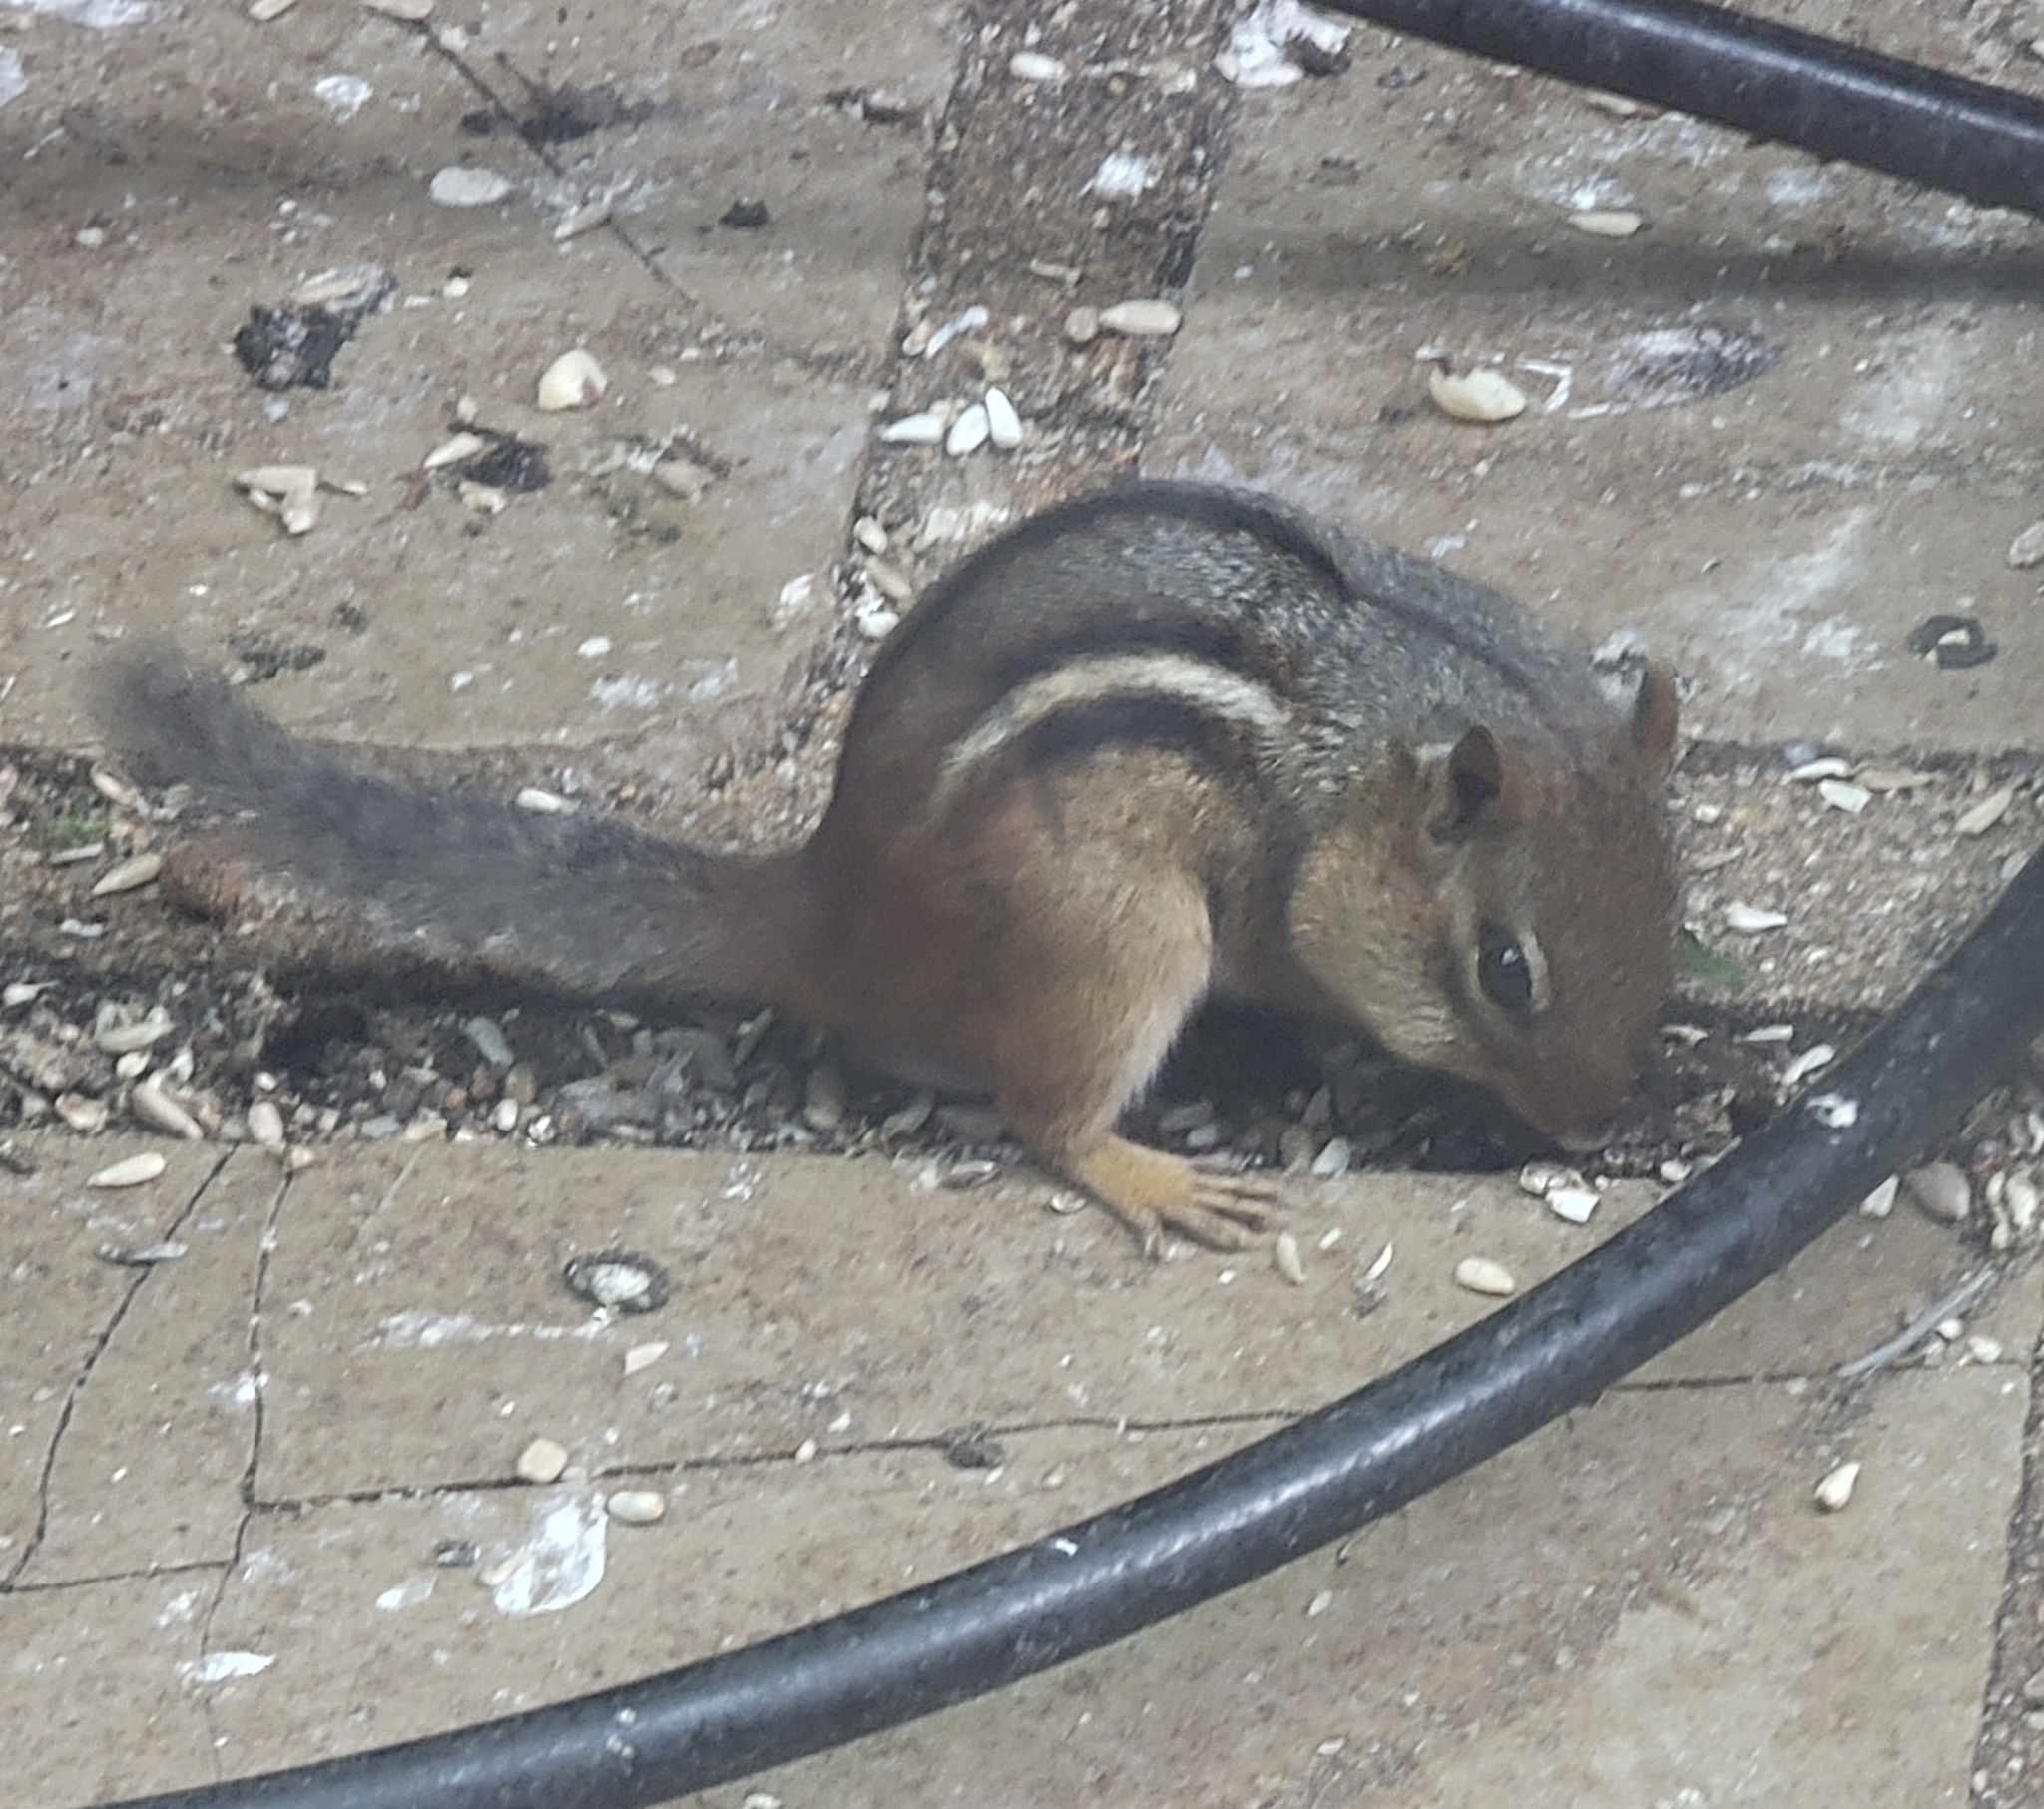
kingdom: Animalia
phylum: Chordata
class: Mammalia
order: Rodentia
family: Sciuridae
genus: Tamias
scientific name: Tamias striatus
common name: Eastern chipmunk
